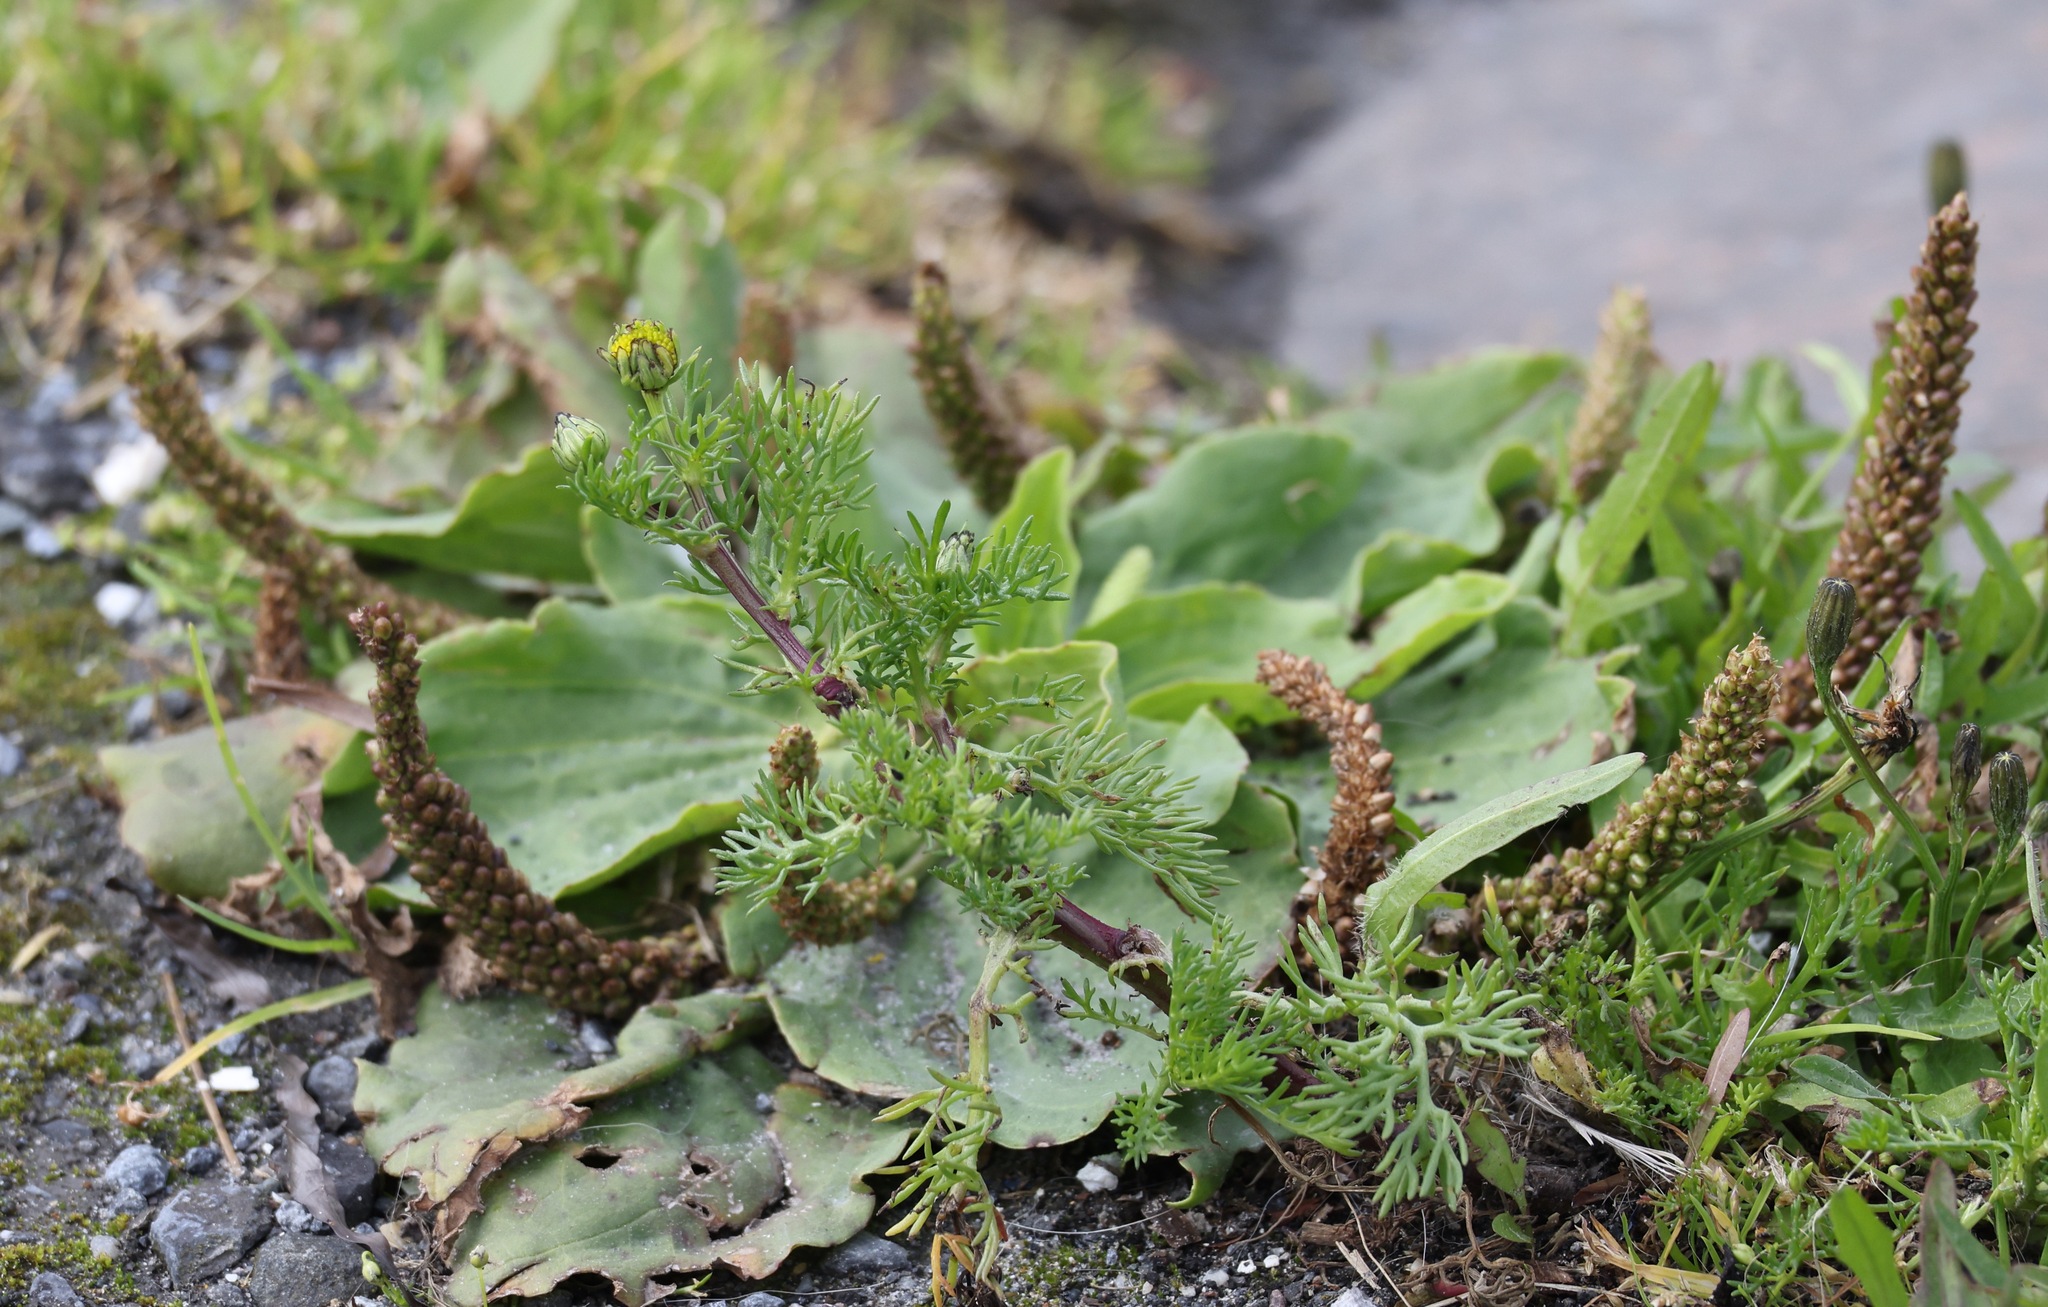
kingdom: Plantae
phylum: Tracheophyta
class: Magnoliopsida
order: Lamiales
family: Plantaginaceae
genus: Plantago
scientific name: Plantago major
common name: Common plantain
